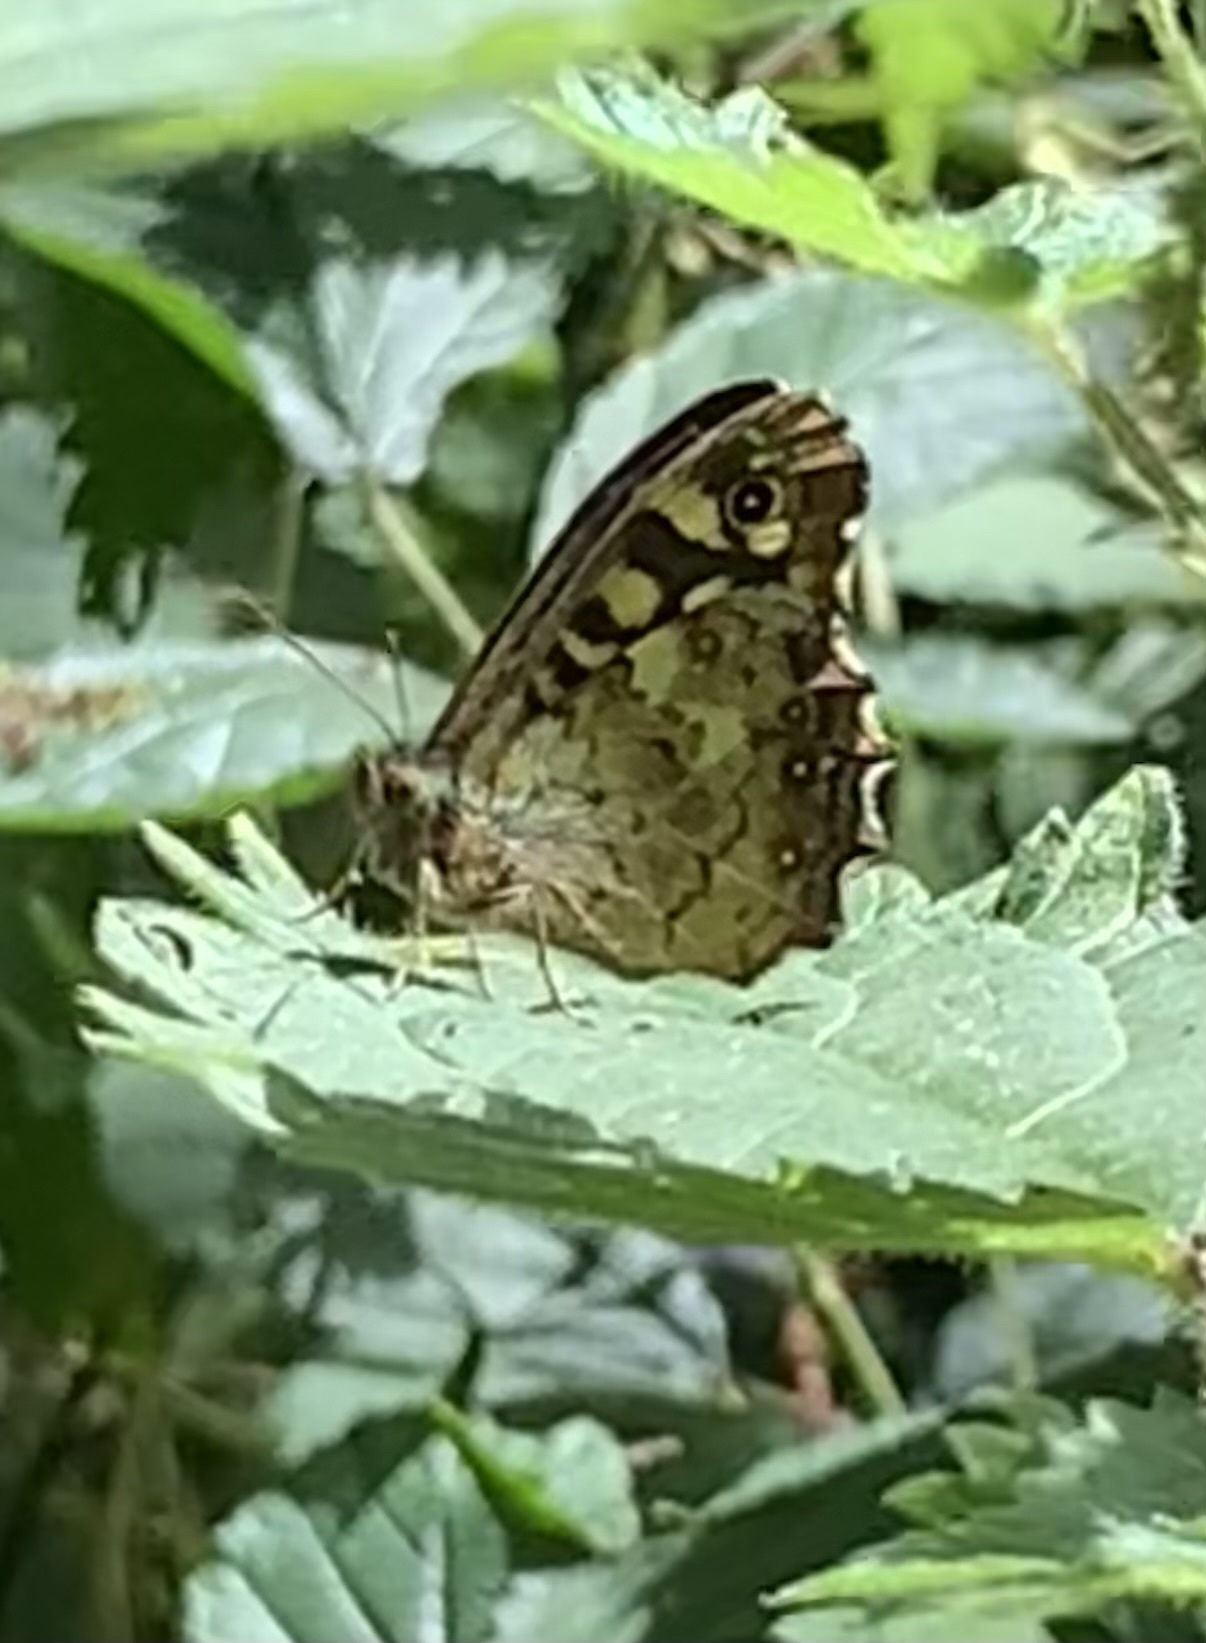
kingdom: Animalia
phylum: Arthropoda
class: Insecta
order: Lepidoptera
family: Nymphalidae
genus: Pararge
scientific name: Pararge aegeria
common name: Speckled wood
